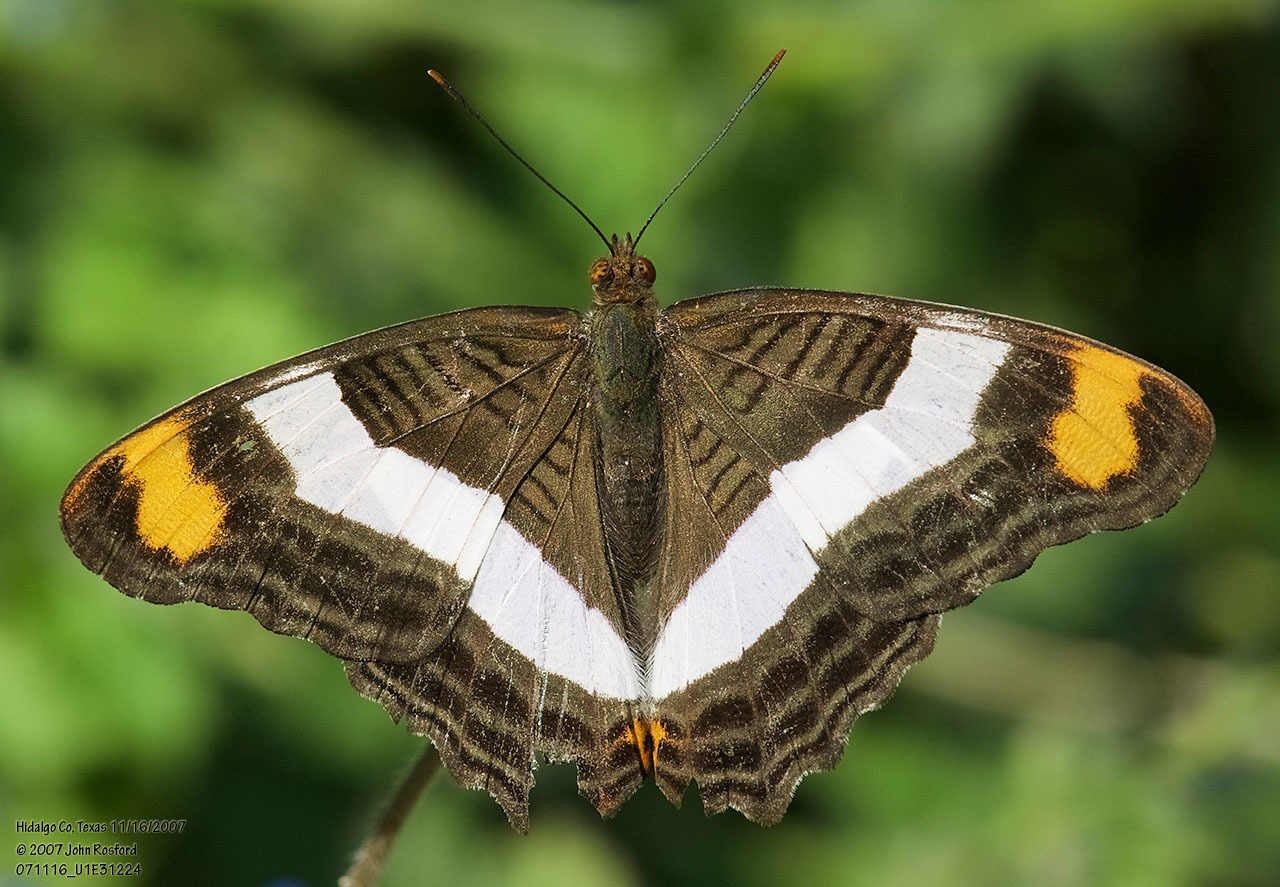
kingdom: Animalia
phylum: Arthropoda
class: Insecta
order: Lepidoptera
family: Nymphalidae
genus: Limenitis
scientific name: Limenitis fessonia
